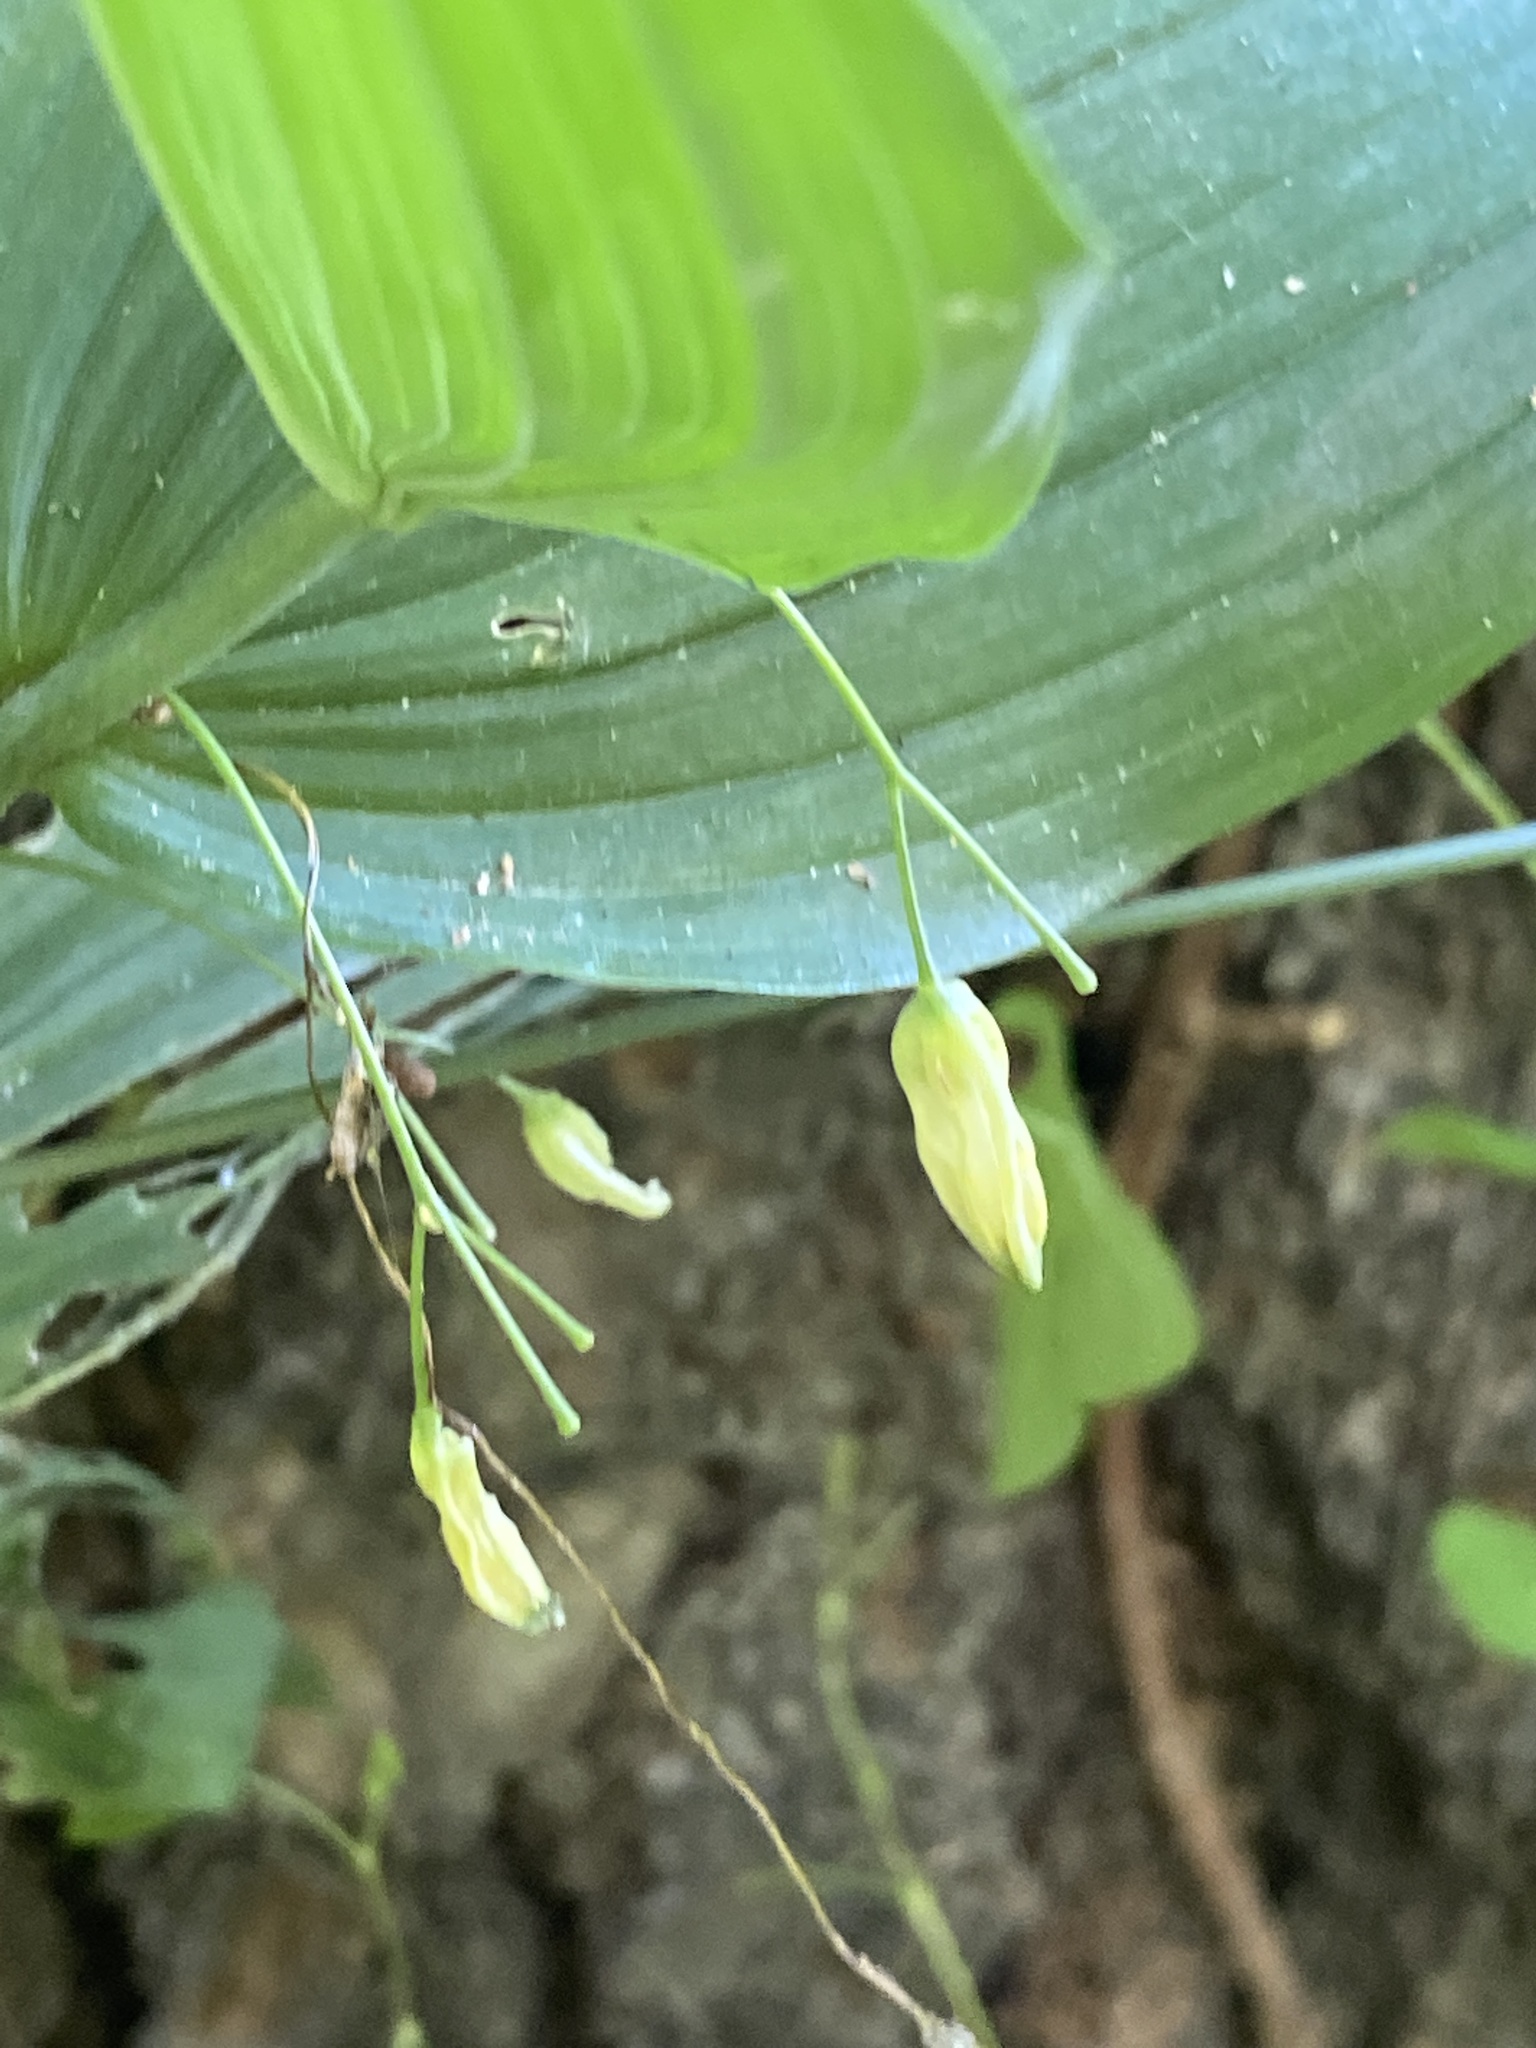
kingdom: Plantae
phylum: Tracheophyta
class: Liliopsida
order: Asparagales
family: Asparagaceae
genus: Polygonatum
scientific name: Polygonatum biflorum
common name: American solomon's-seal
